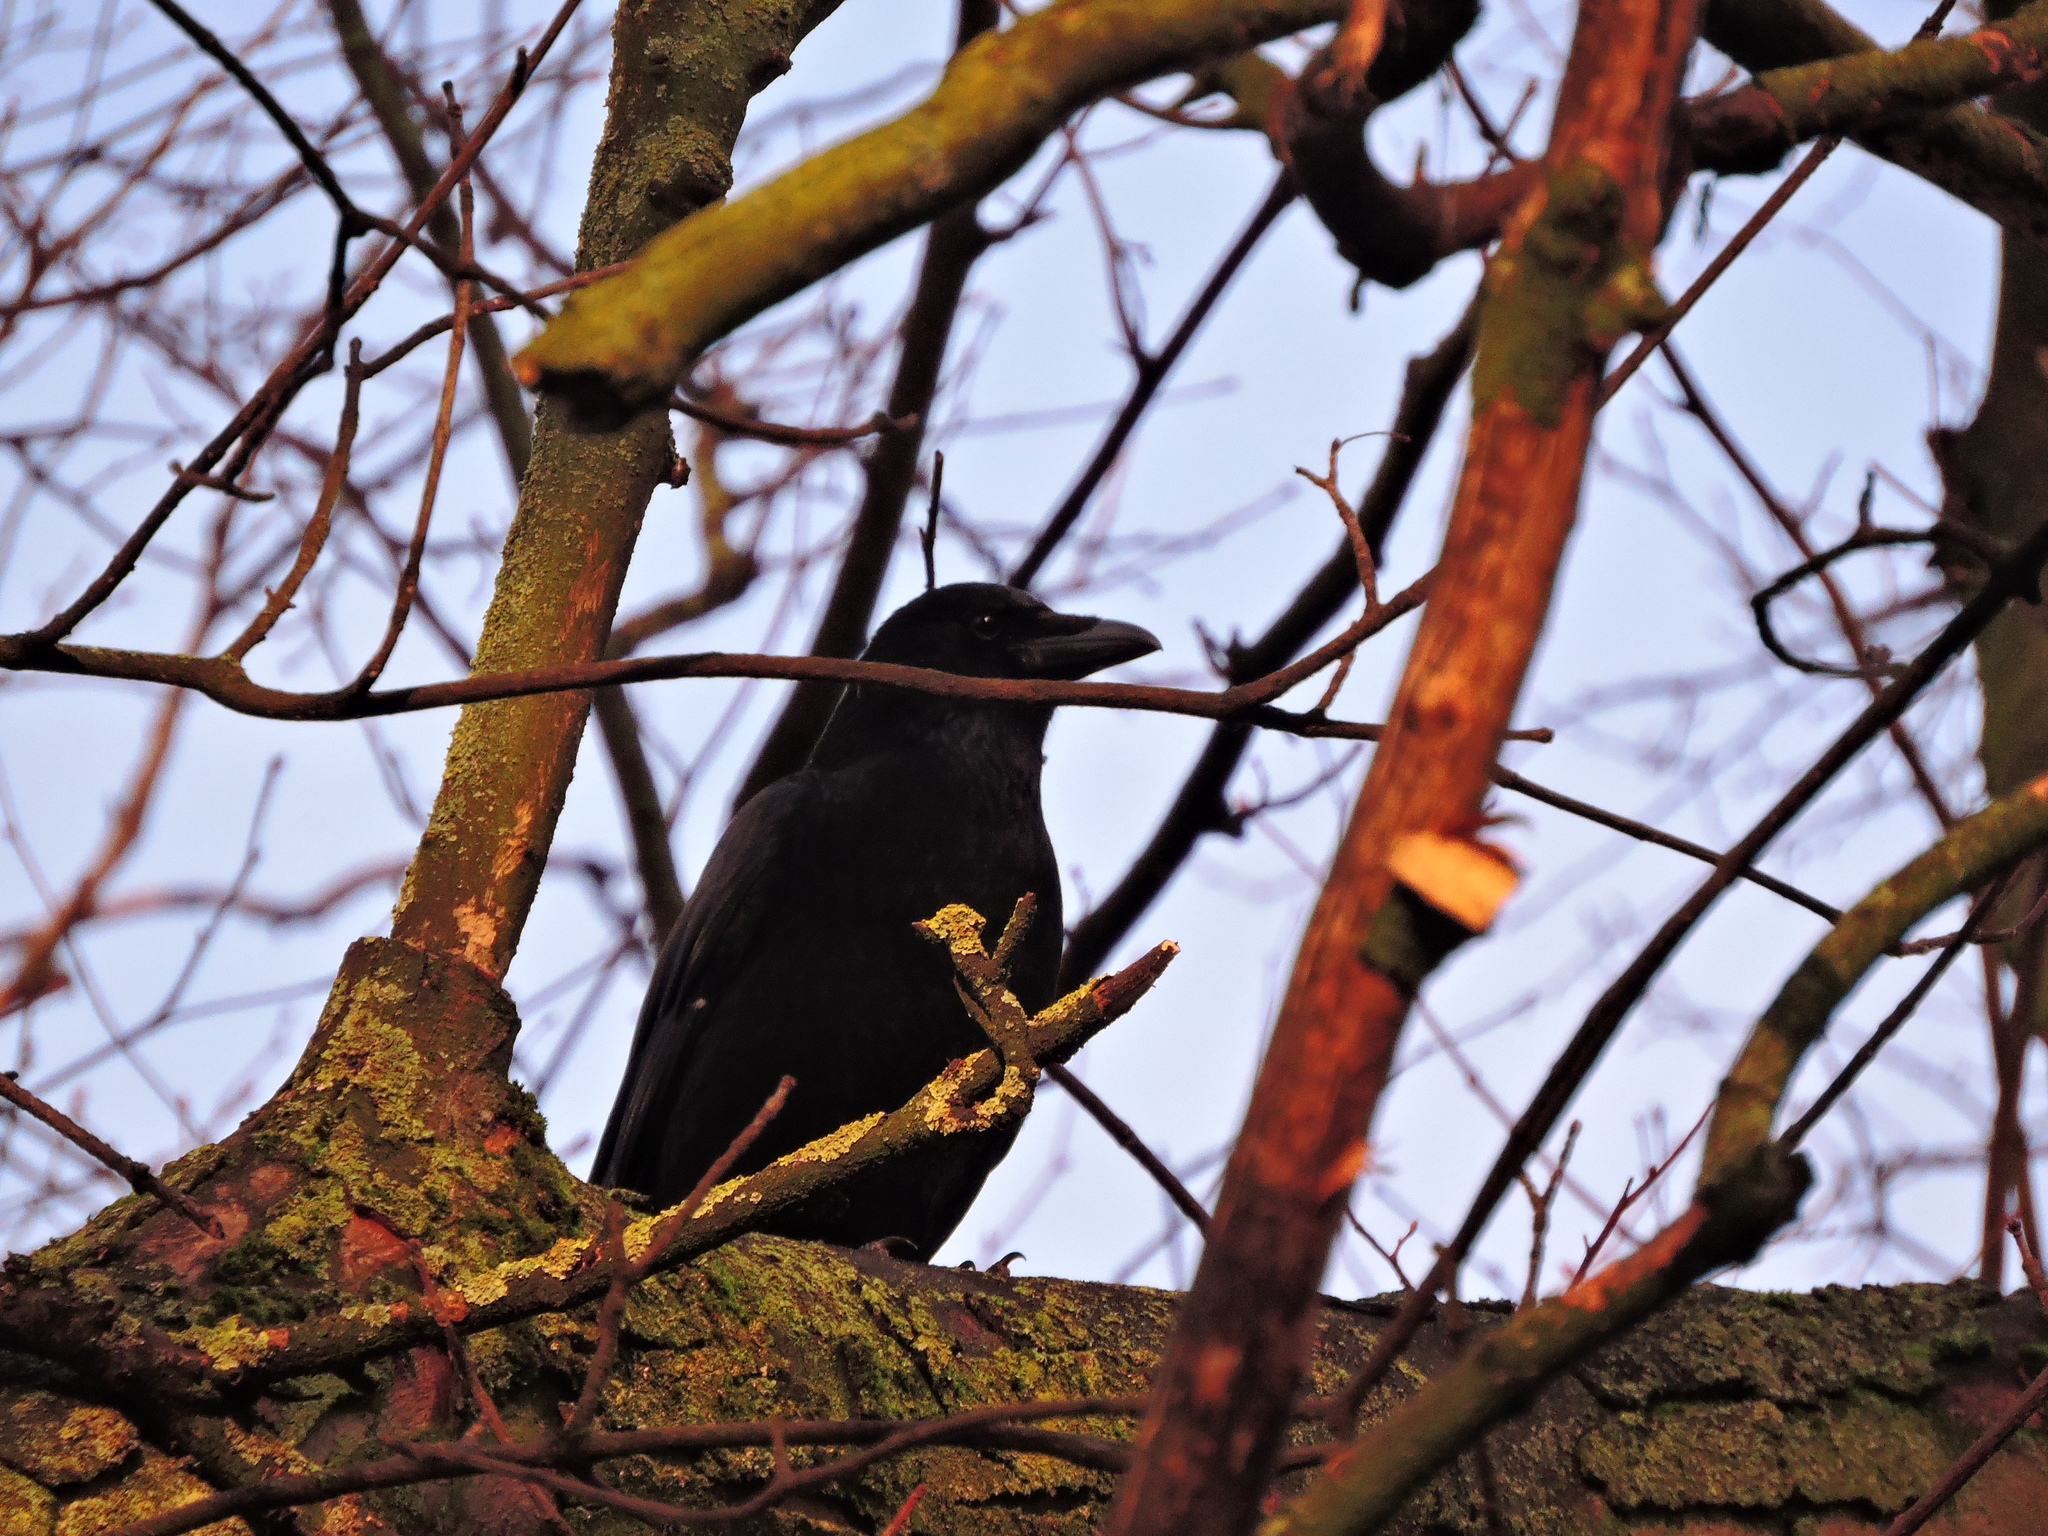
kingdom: Animalia
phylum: Chordata
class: Aves
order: Passeriformes
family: Corvidae
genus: Corvus
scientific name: Corvus corone
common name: Carrion crow
